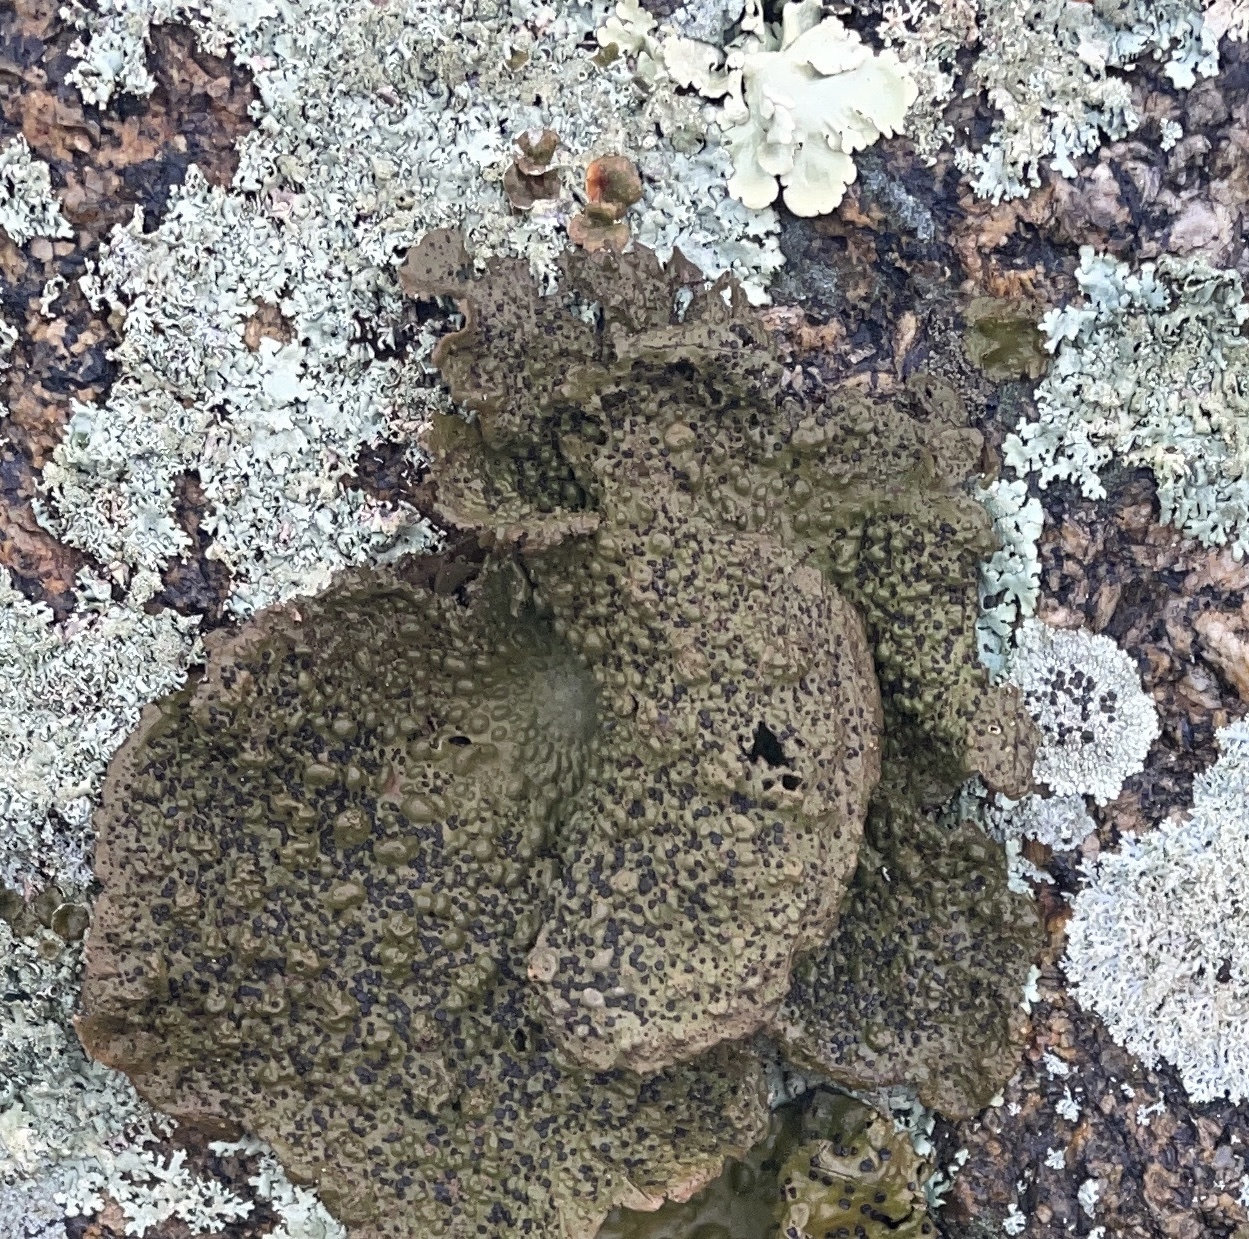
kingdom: Fungi
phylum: Ascomycota
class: Lecanoromycetes
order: Umbilicariales
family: Umbilicariaceae
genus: Lasallia
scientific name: Lasallia papulosa
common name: Common toadskin lichen
